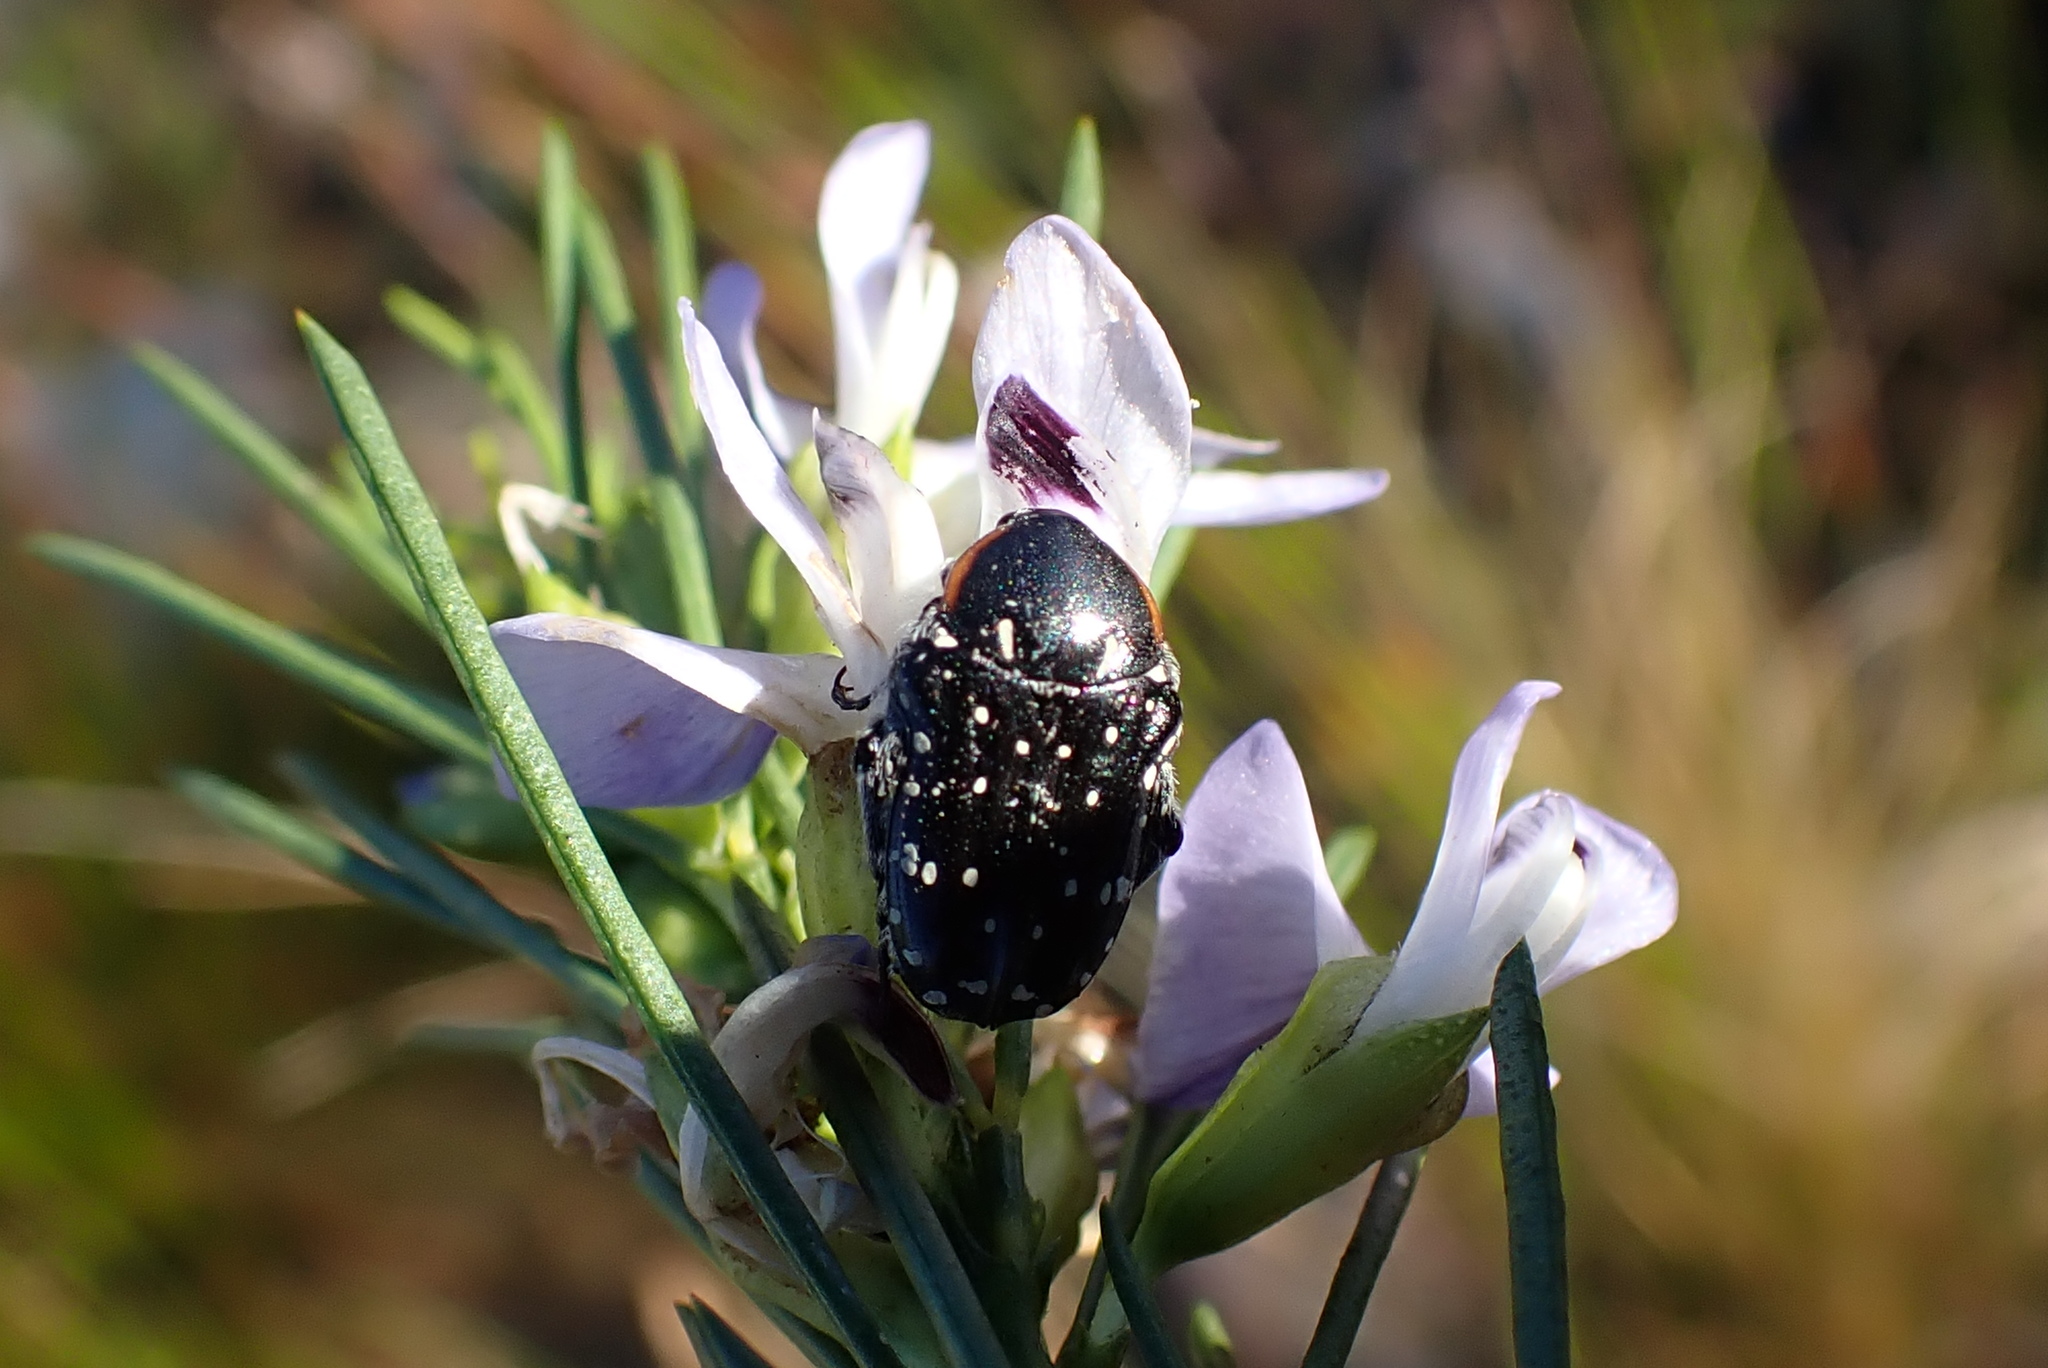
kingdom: Animalia
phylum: Arthropoda
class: Insecta
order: Coleoptera
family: Scarabaeidae
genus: Oxythyrea
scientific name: Oxythyrea
